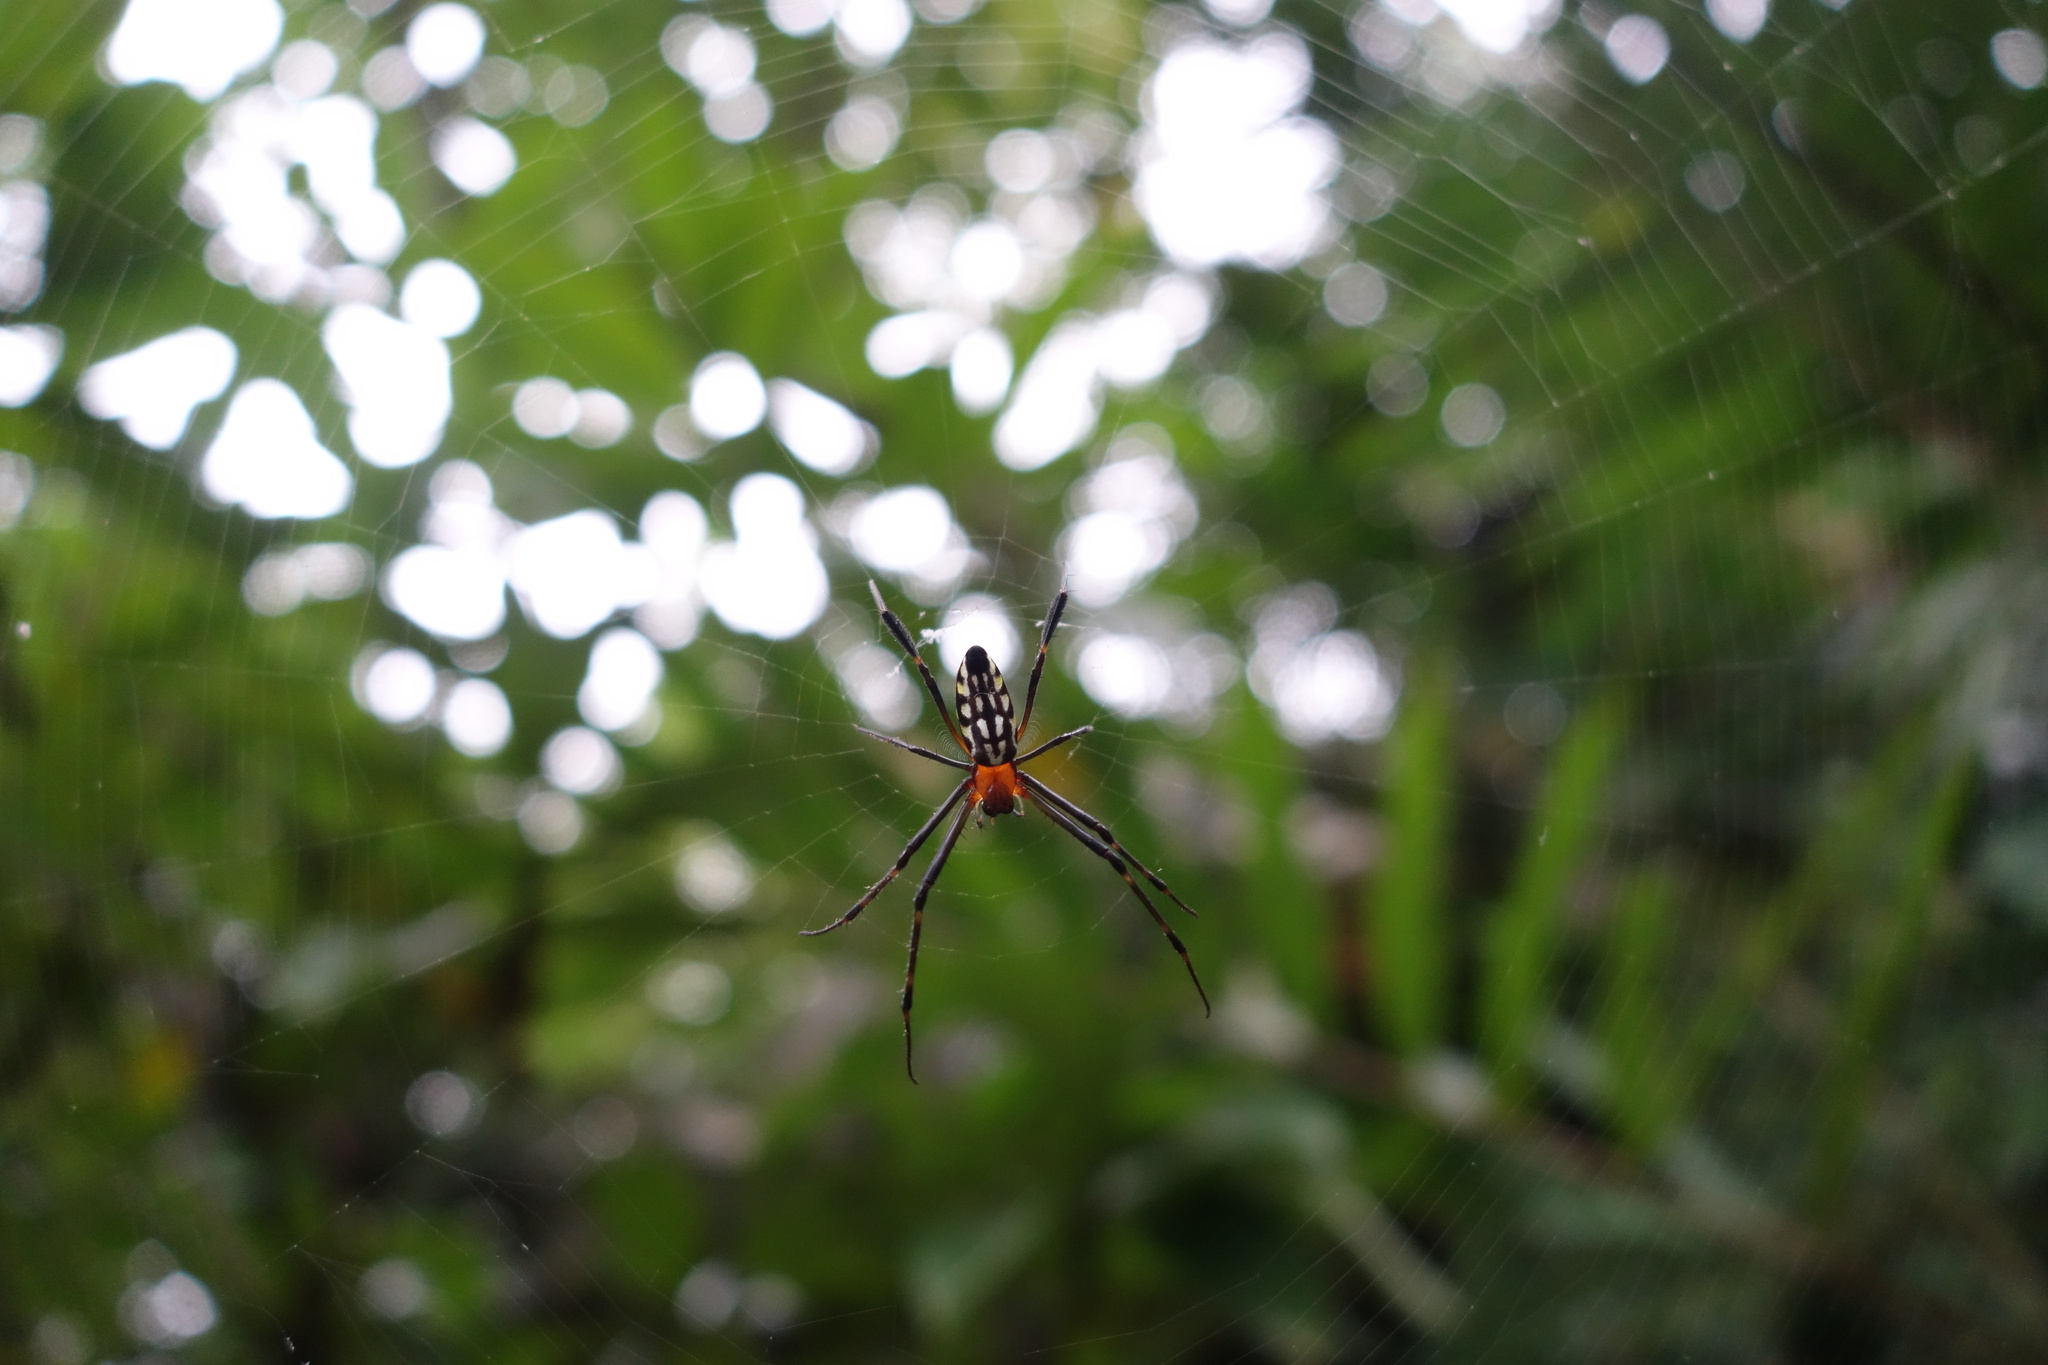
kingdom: Animalia
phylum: Arthropoda
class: Arachnida
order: Araneae
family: Tetragnathidae
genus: Leucauge
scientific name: Leucauge tessellata
